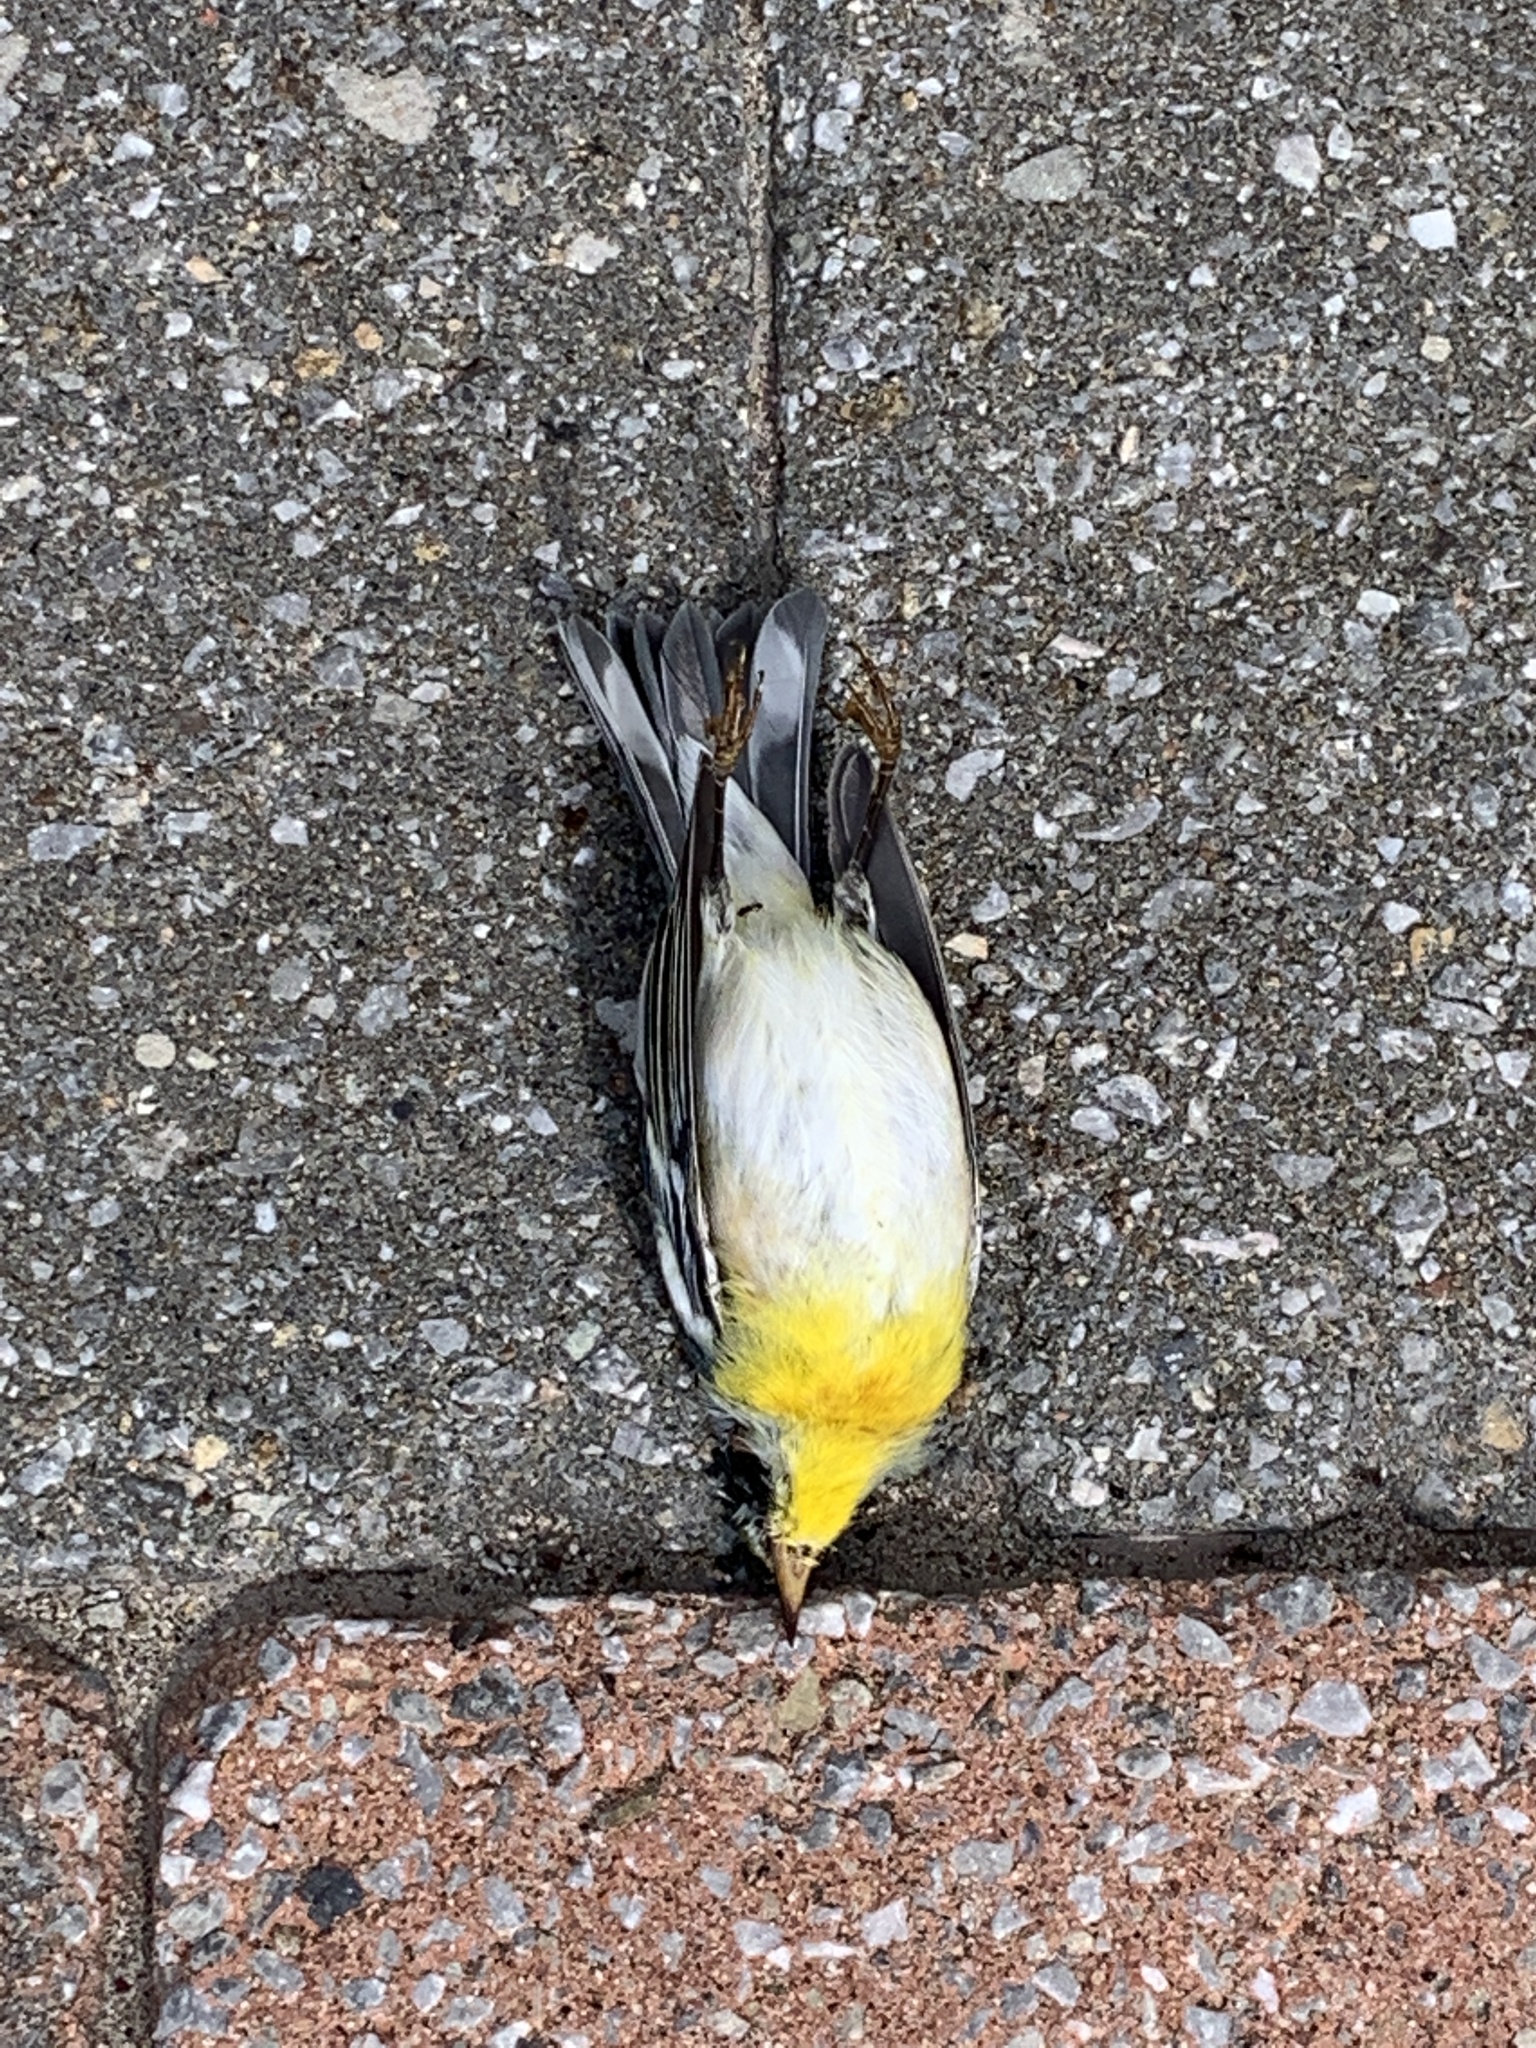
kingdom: Animalia
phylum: Chordata
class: Aves
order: Passeriformes
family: Parulidae
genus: Setophaga
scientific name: Setophaga americana
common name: Northern parula
